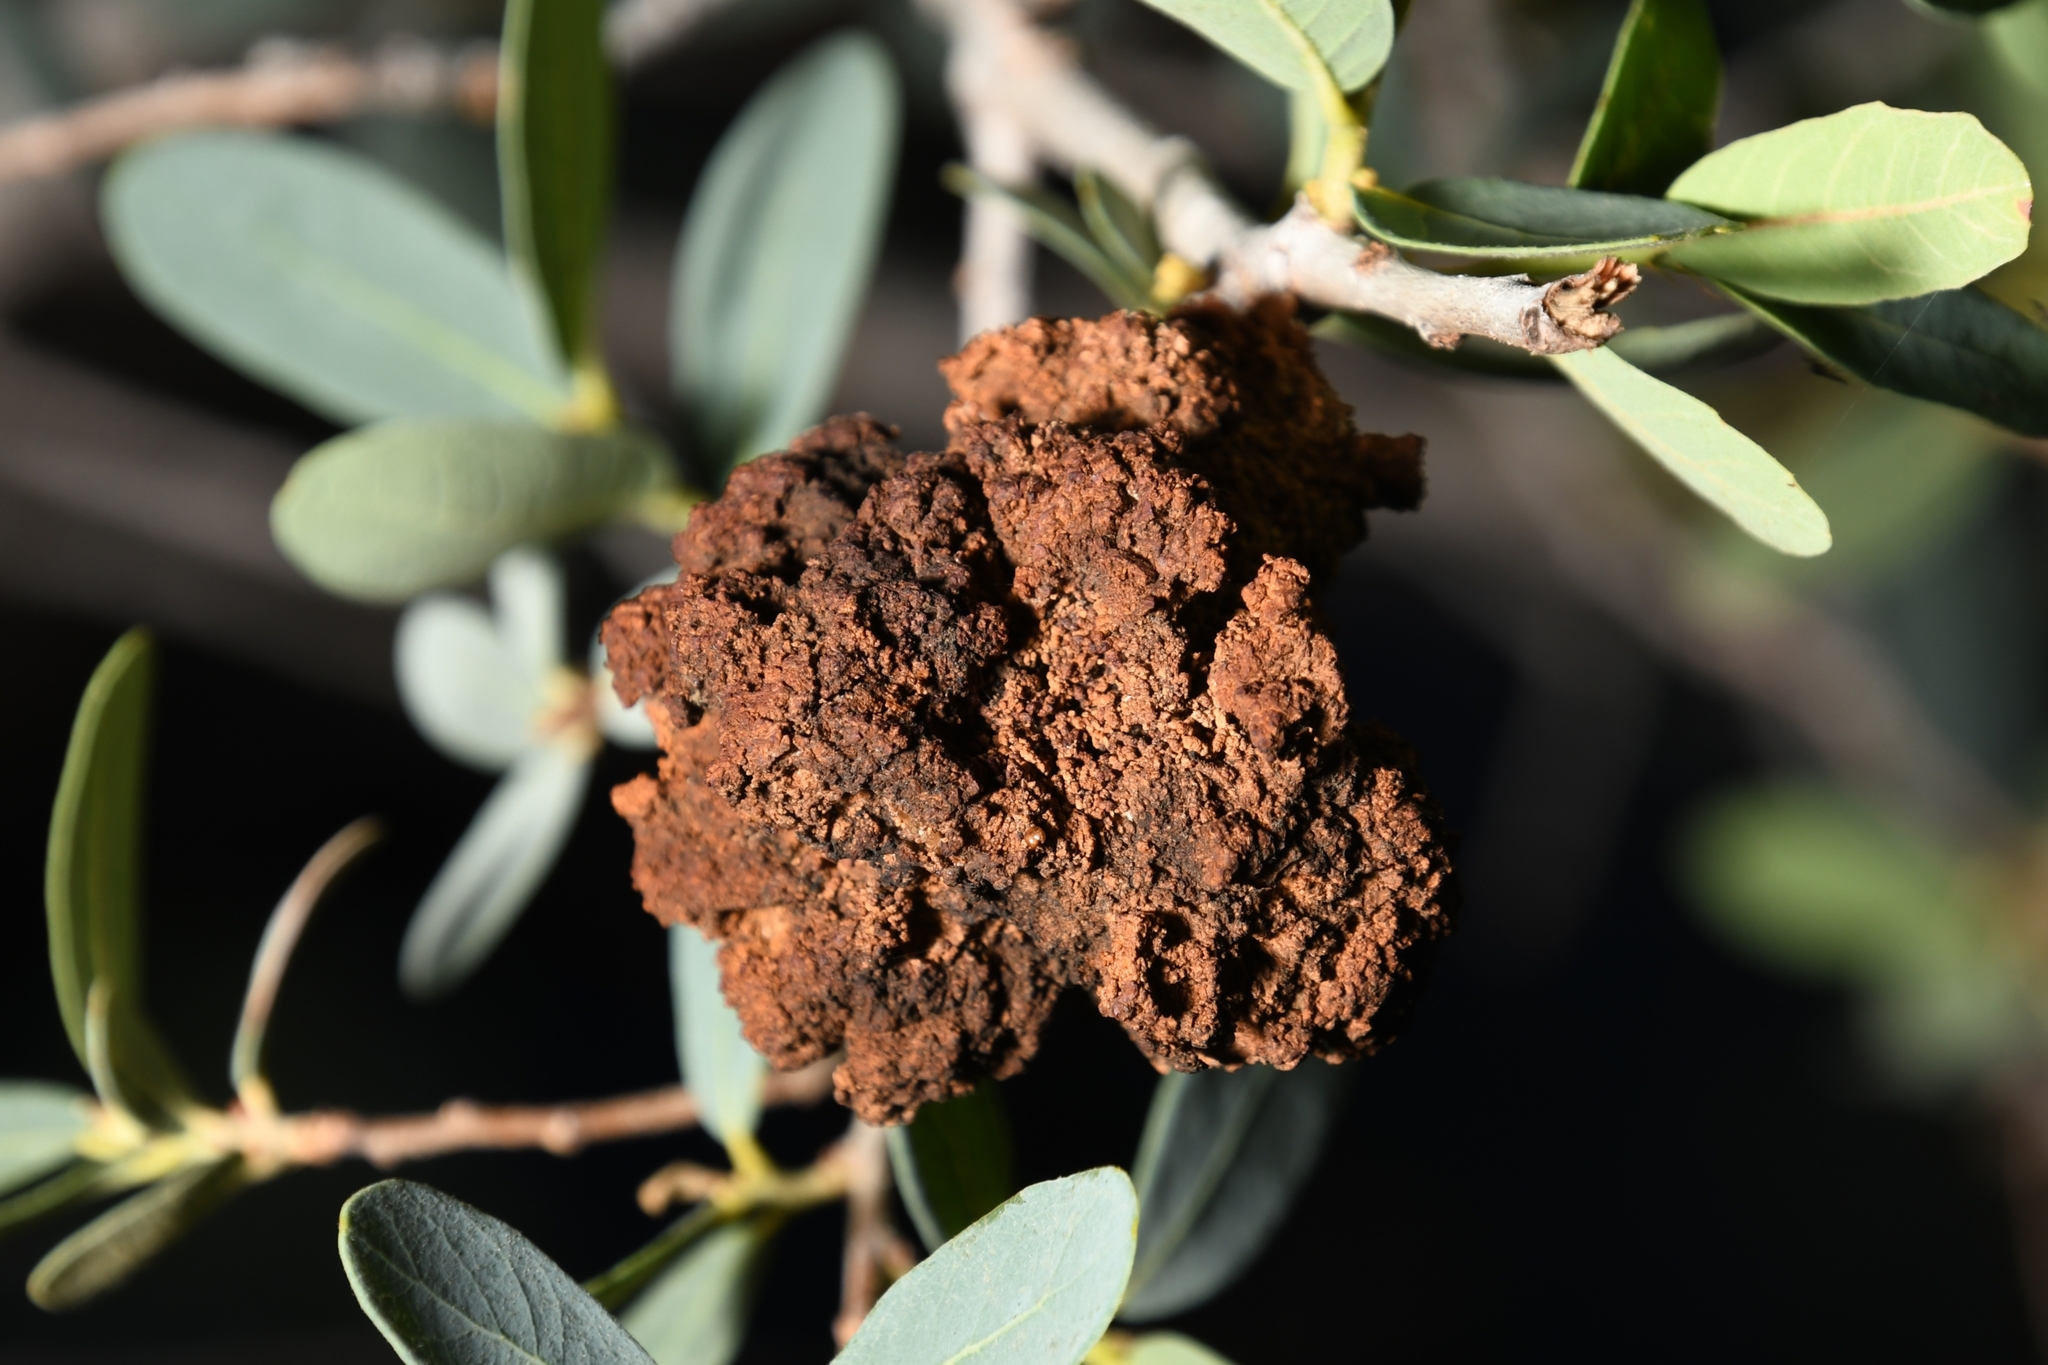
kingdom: Animalia
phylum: Arthropoda
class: Insecta
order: Hymenoptera
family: Cynipidae
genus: Andricus
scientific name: Andricus
